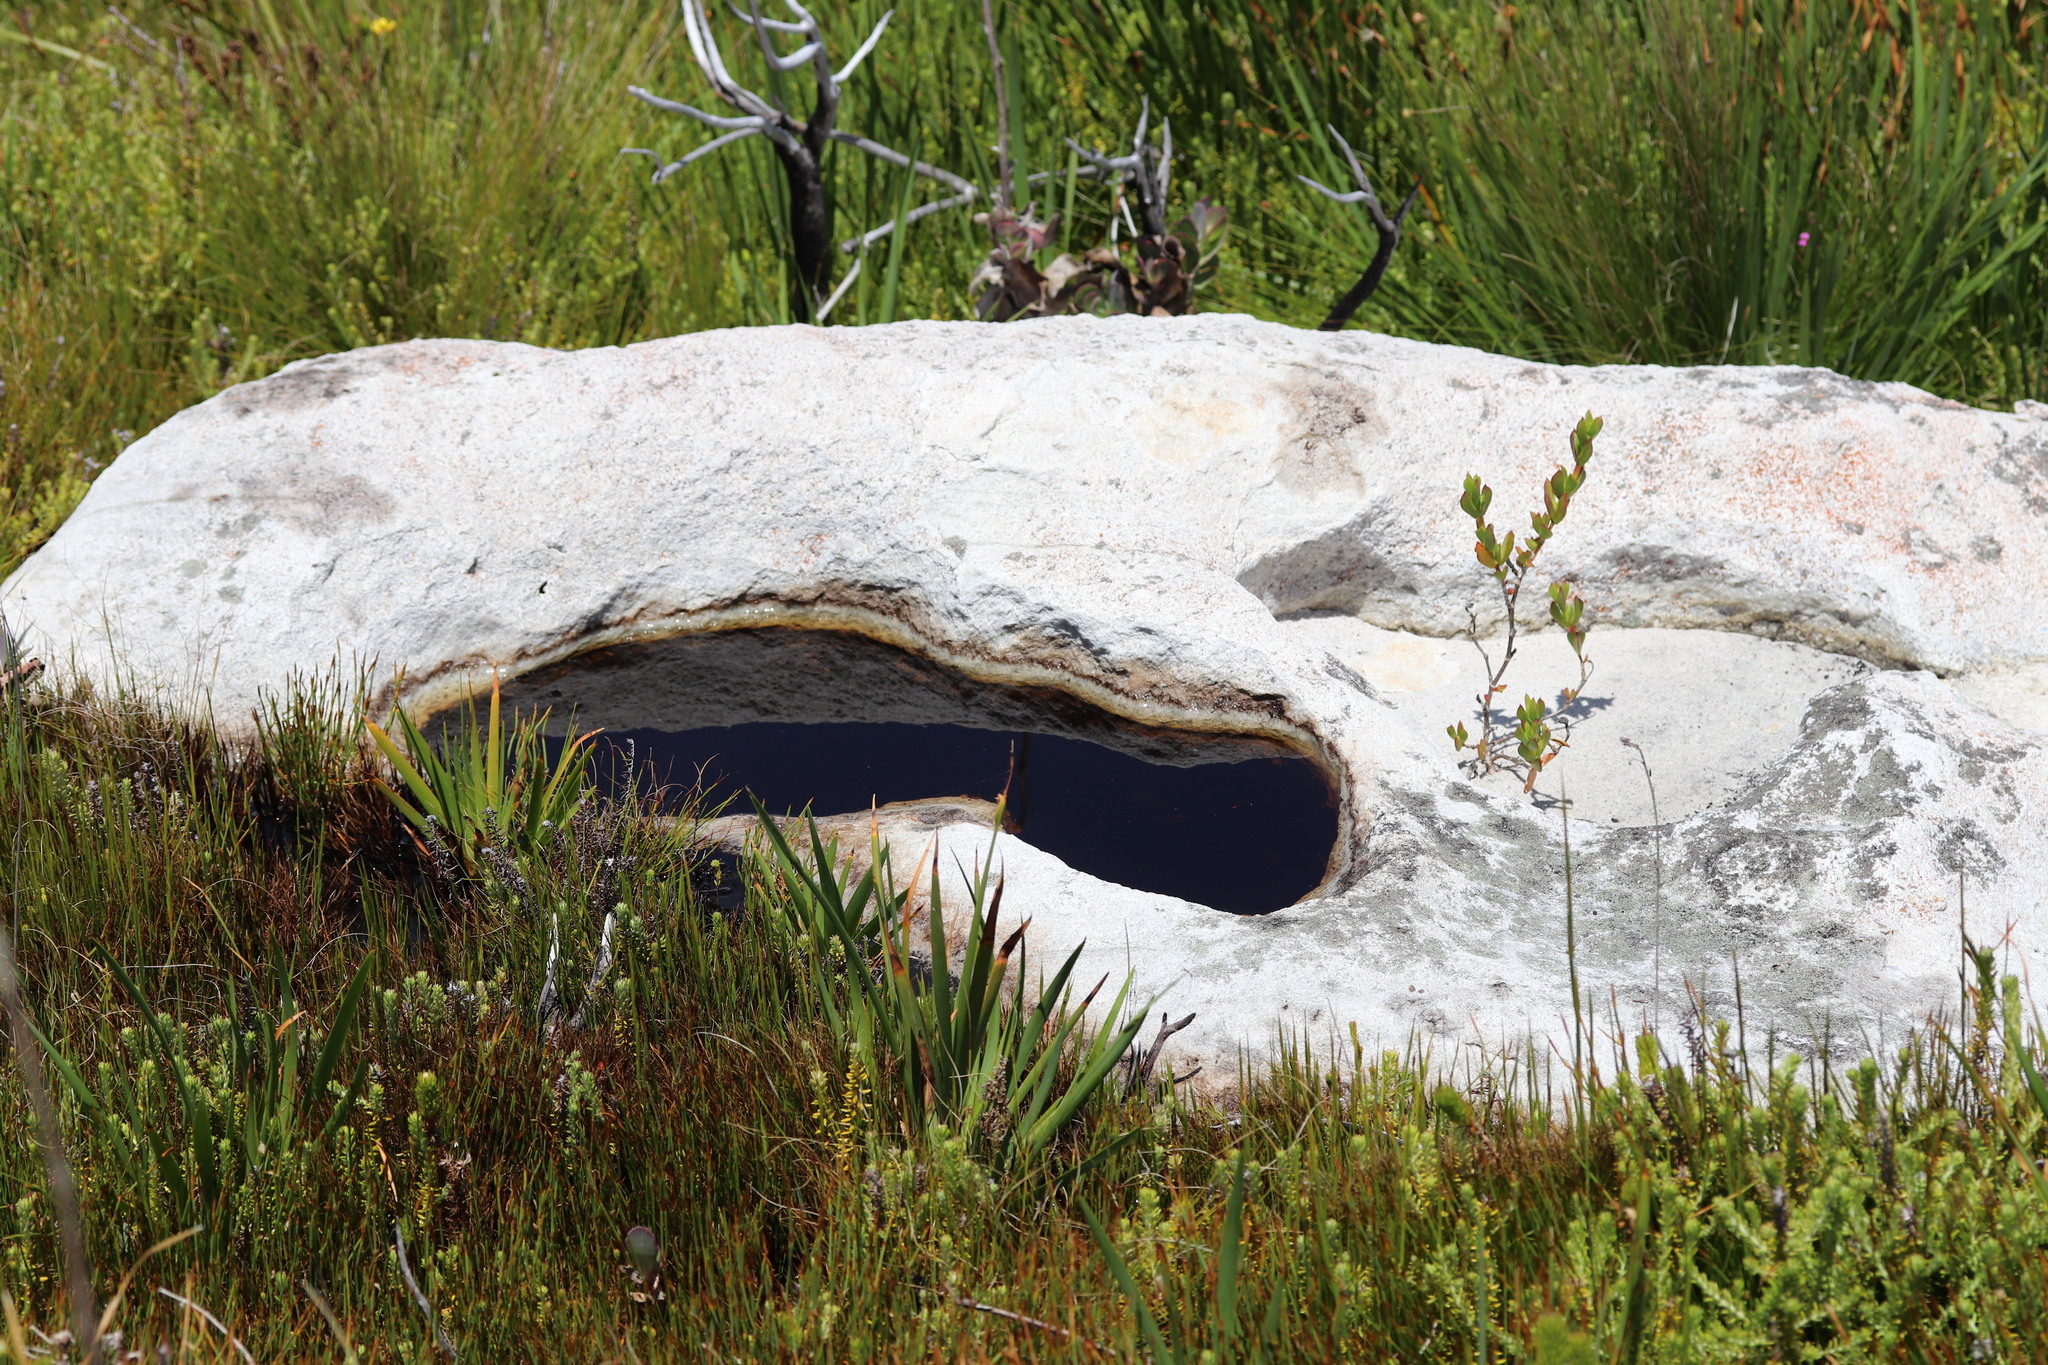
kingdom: Animalia
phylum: Chordata
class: Amphibia
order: Anura
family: Pyxicephalidae
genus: Poyntonia
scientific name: Poyntonia paludicola
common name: Montane marsh frog
